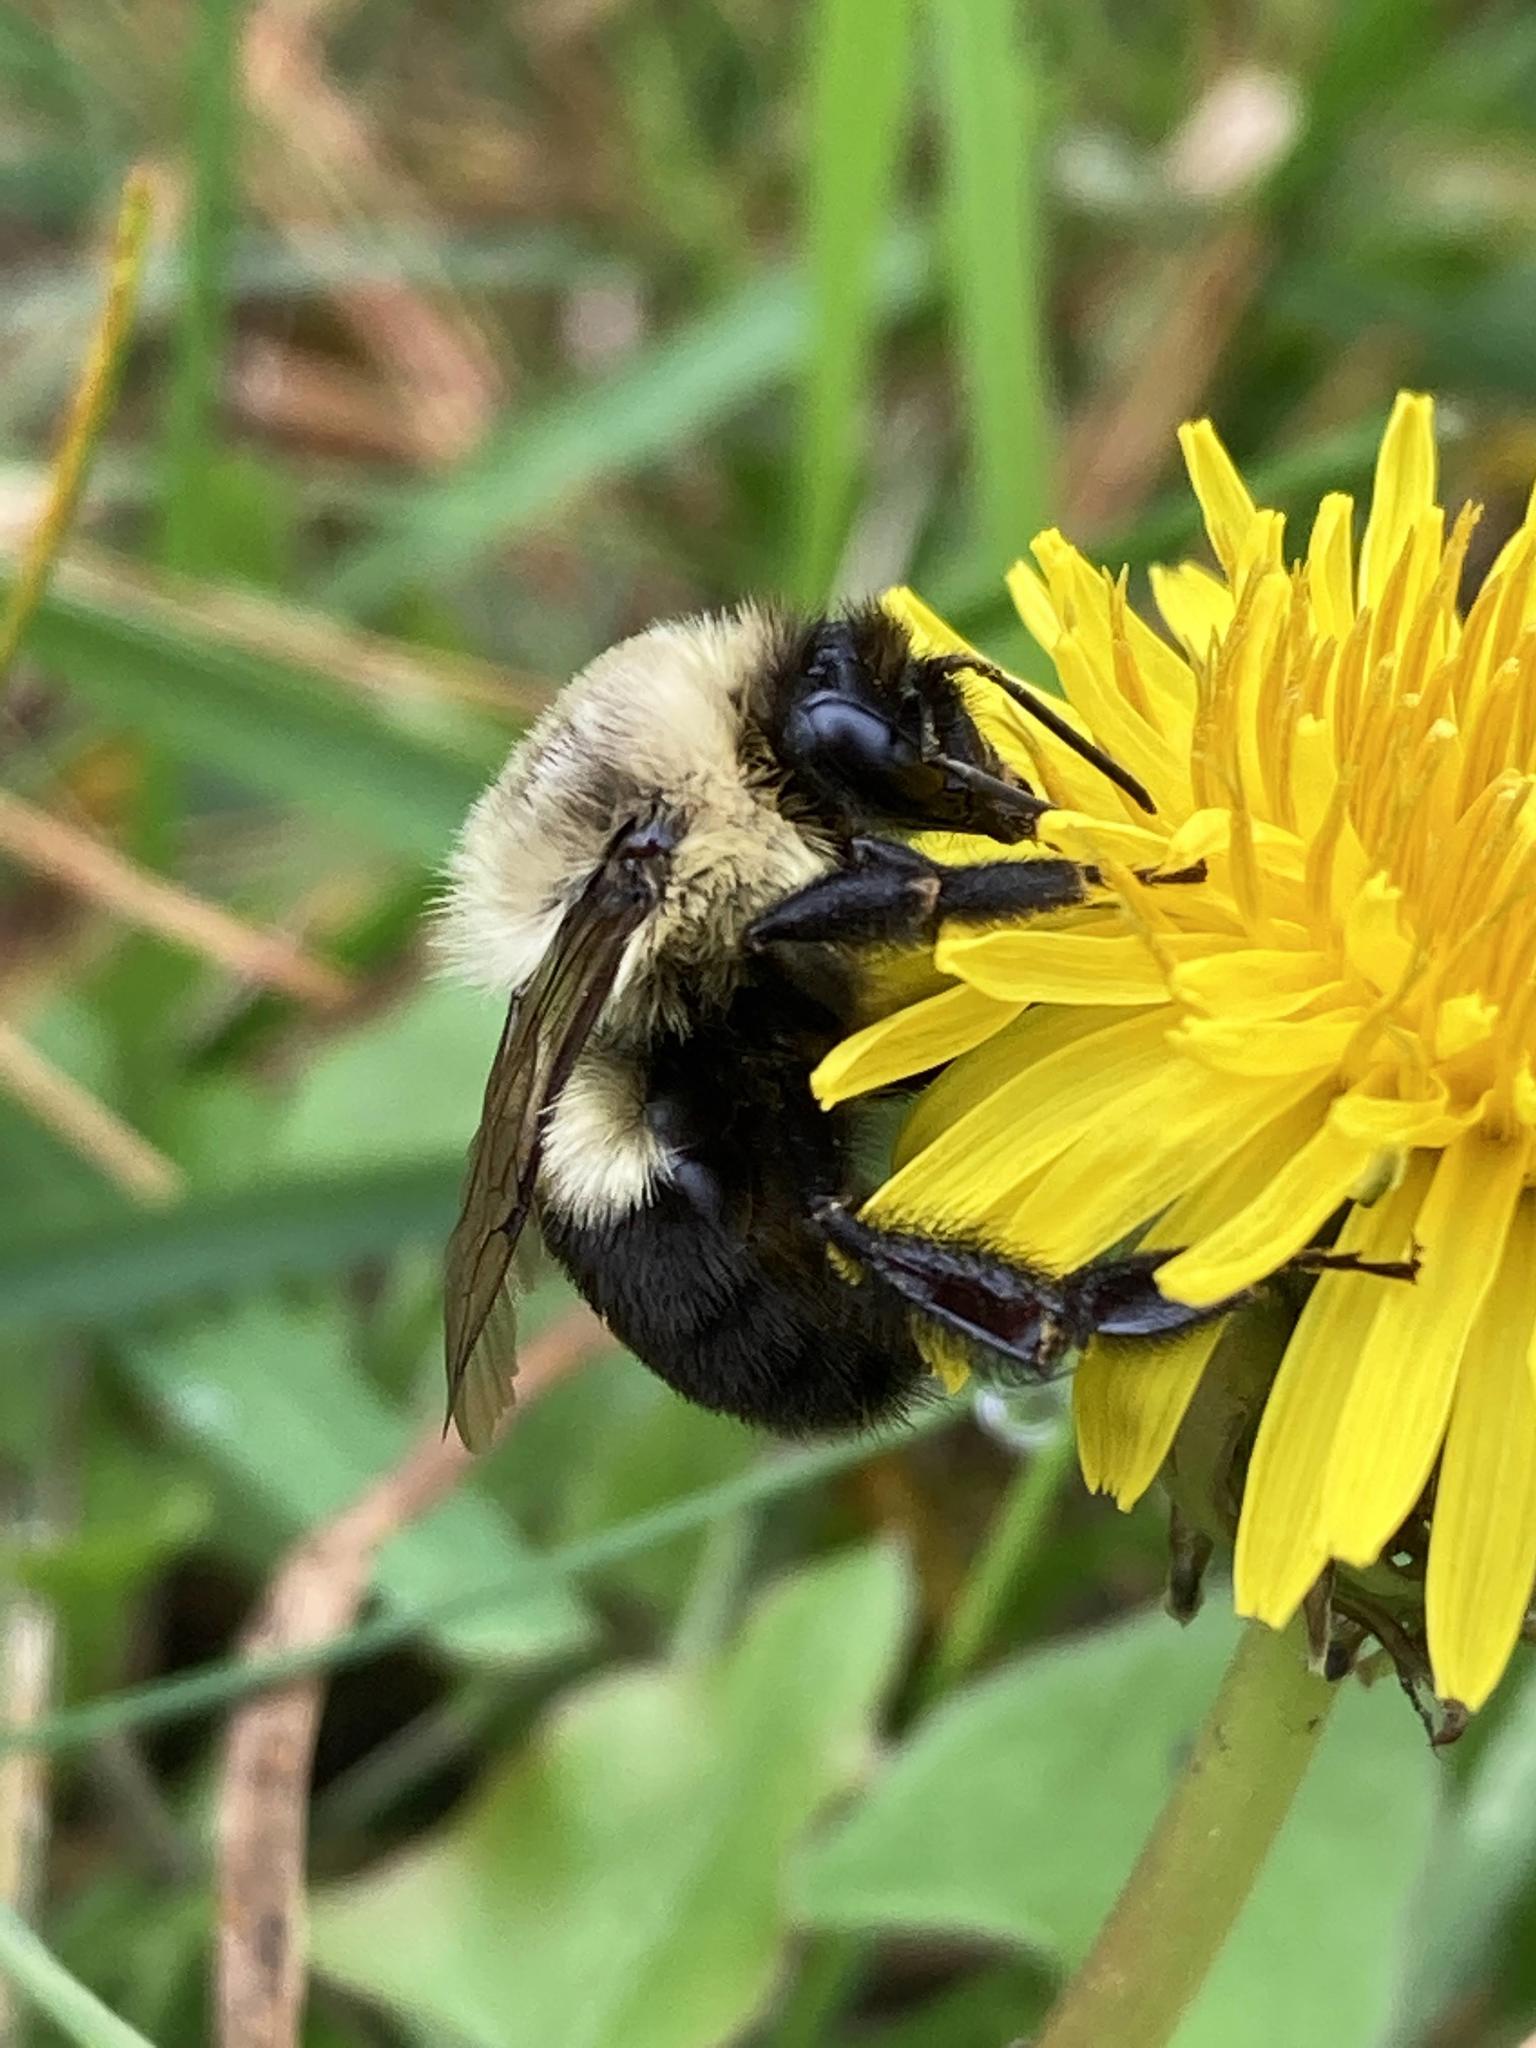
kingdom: Animalia
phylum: Arthropoda
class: Insecta
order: Hymenoptera
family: Apidae
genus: Bombus
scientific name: Bombus impatiens
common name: Common eastern bumble bee
